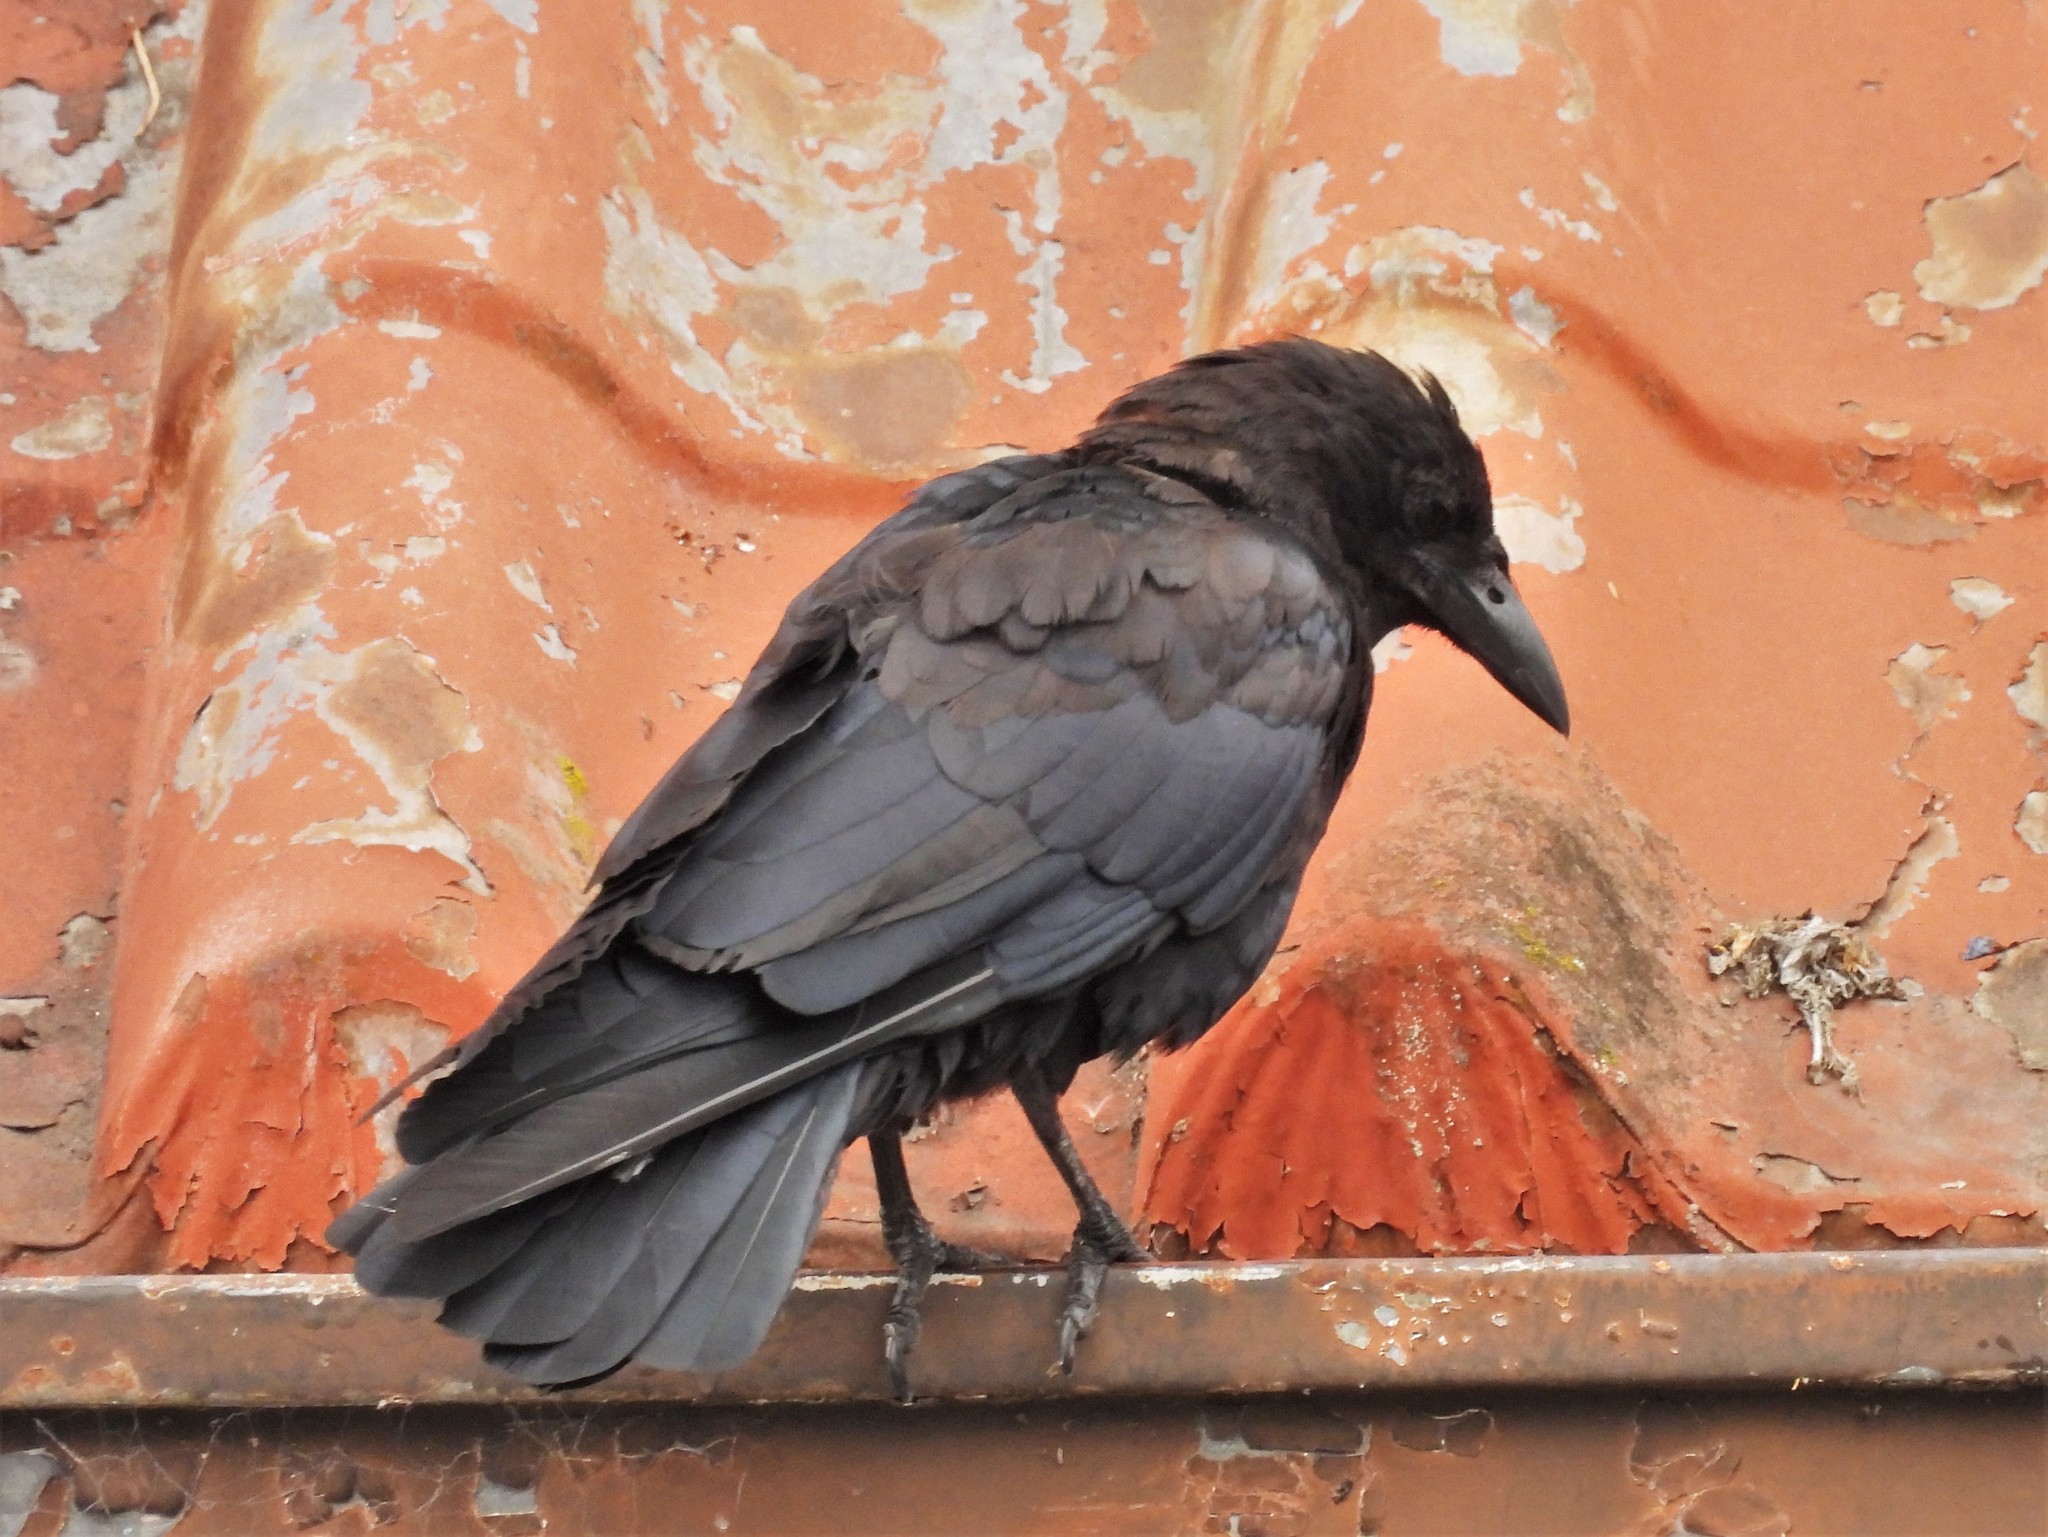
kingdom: Animalia
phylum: Chordata
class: Aves
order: Passeriformes
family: Corvidae
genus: Corvus
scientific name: Corvus brachyrhynchos
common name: American crow
